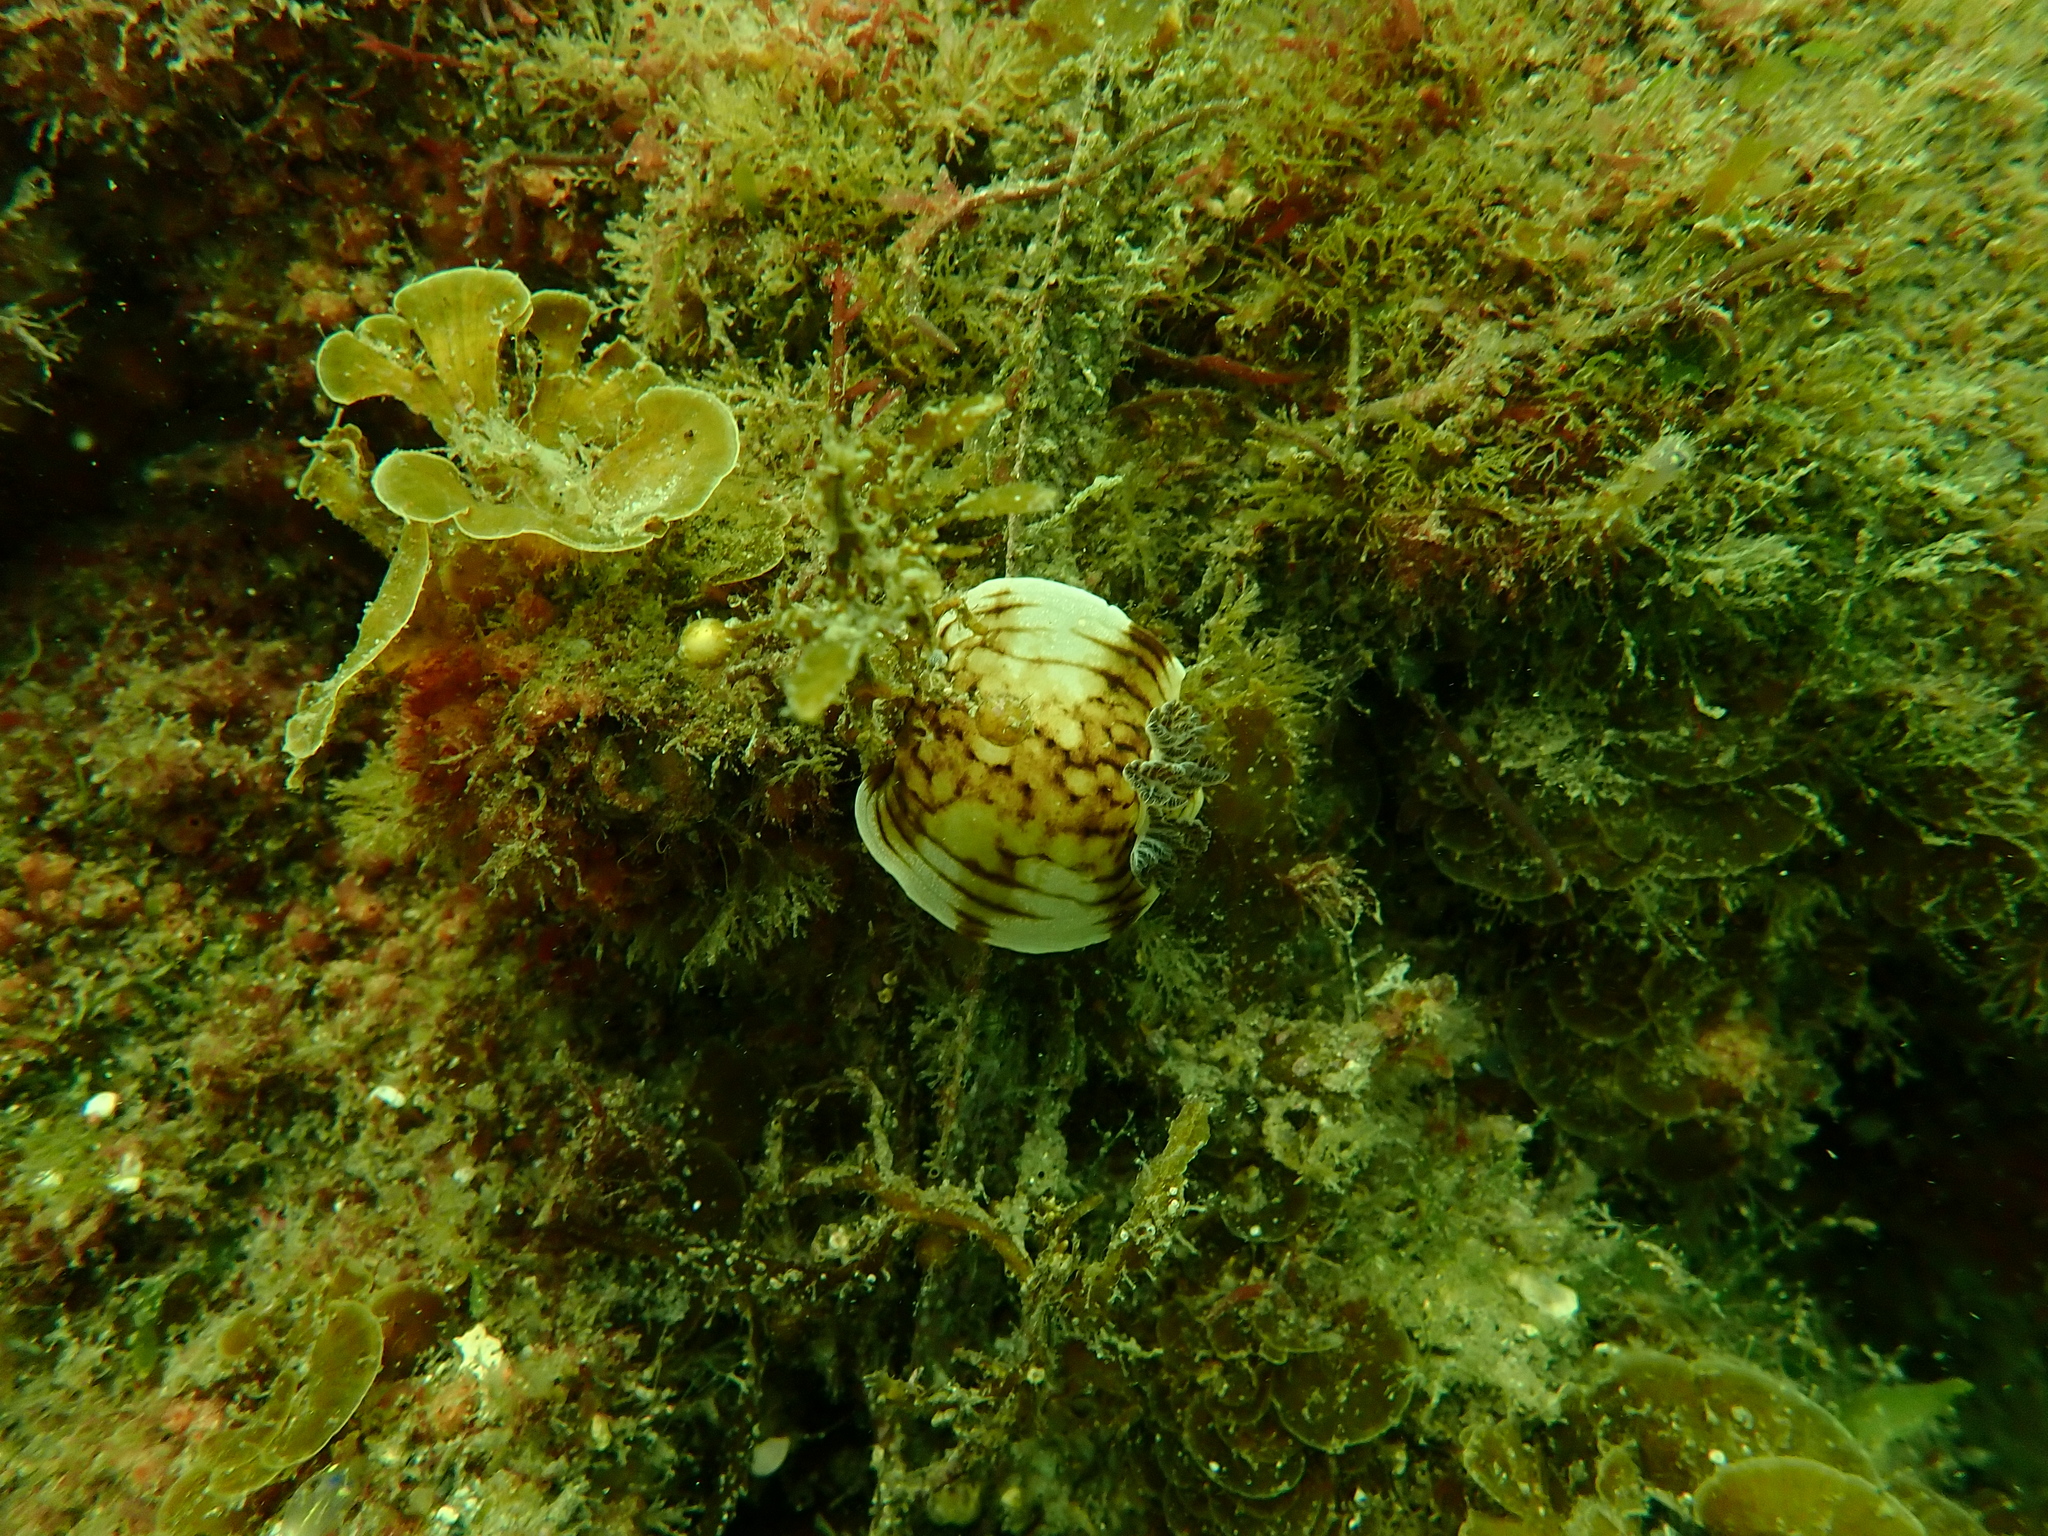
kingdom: Animalia
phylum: Mollusca
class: Gastropoda
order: Nudibranchia
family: Dorididae
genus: Aphelodoris
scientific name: Aphelodoris varia
